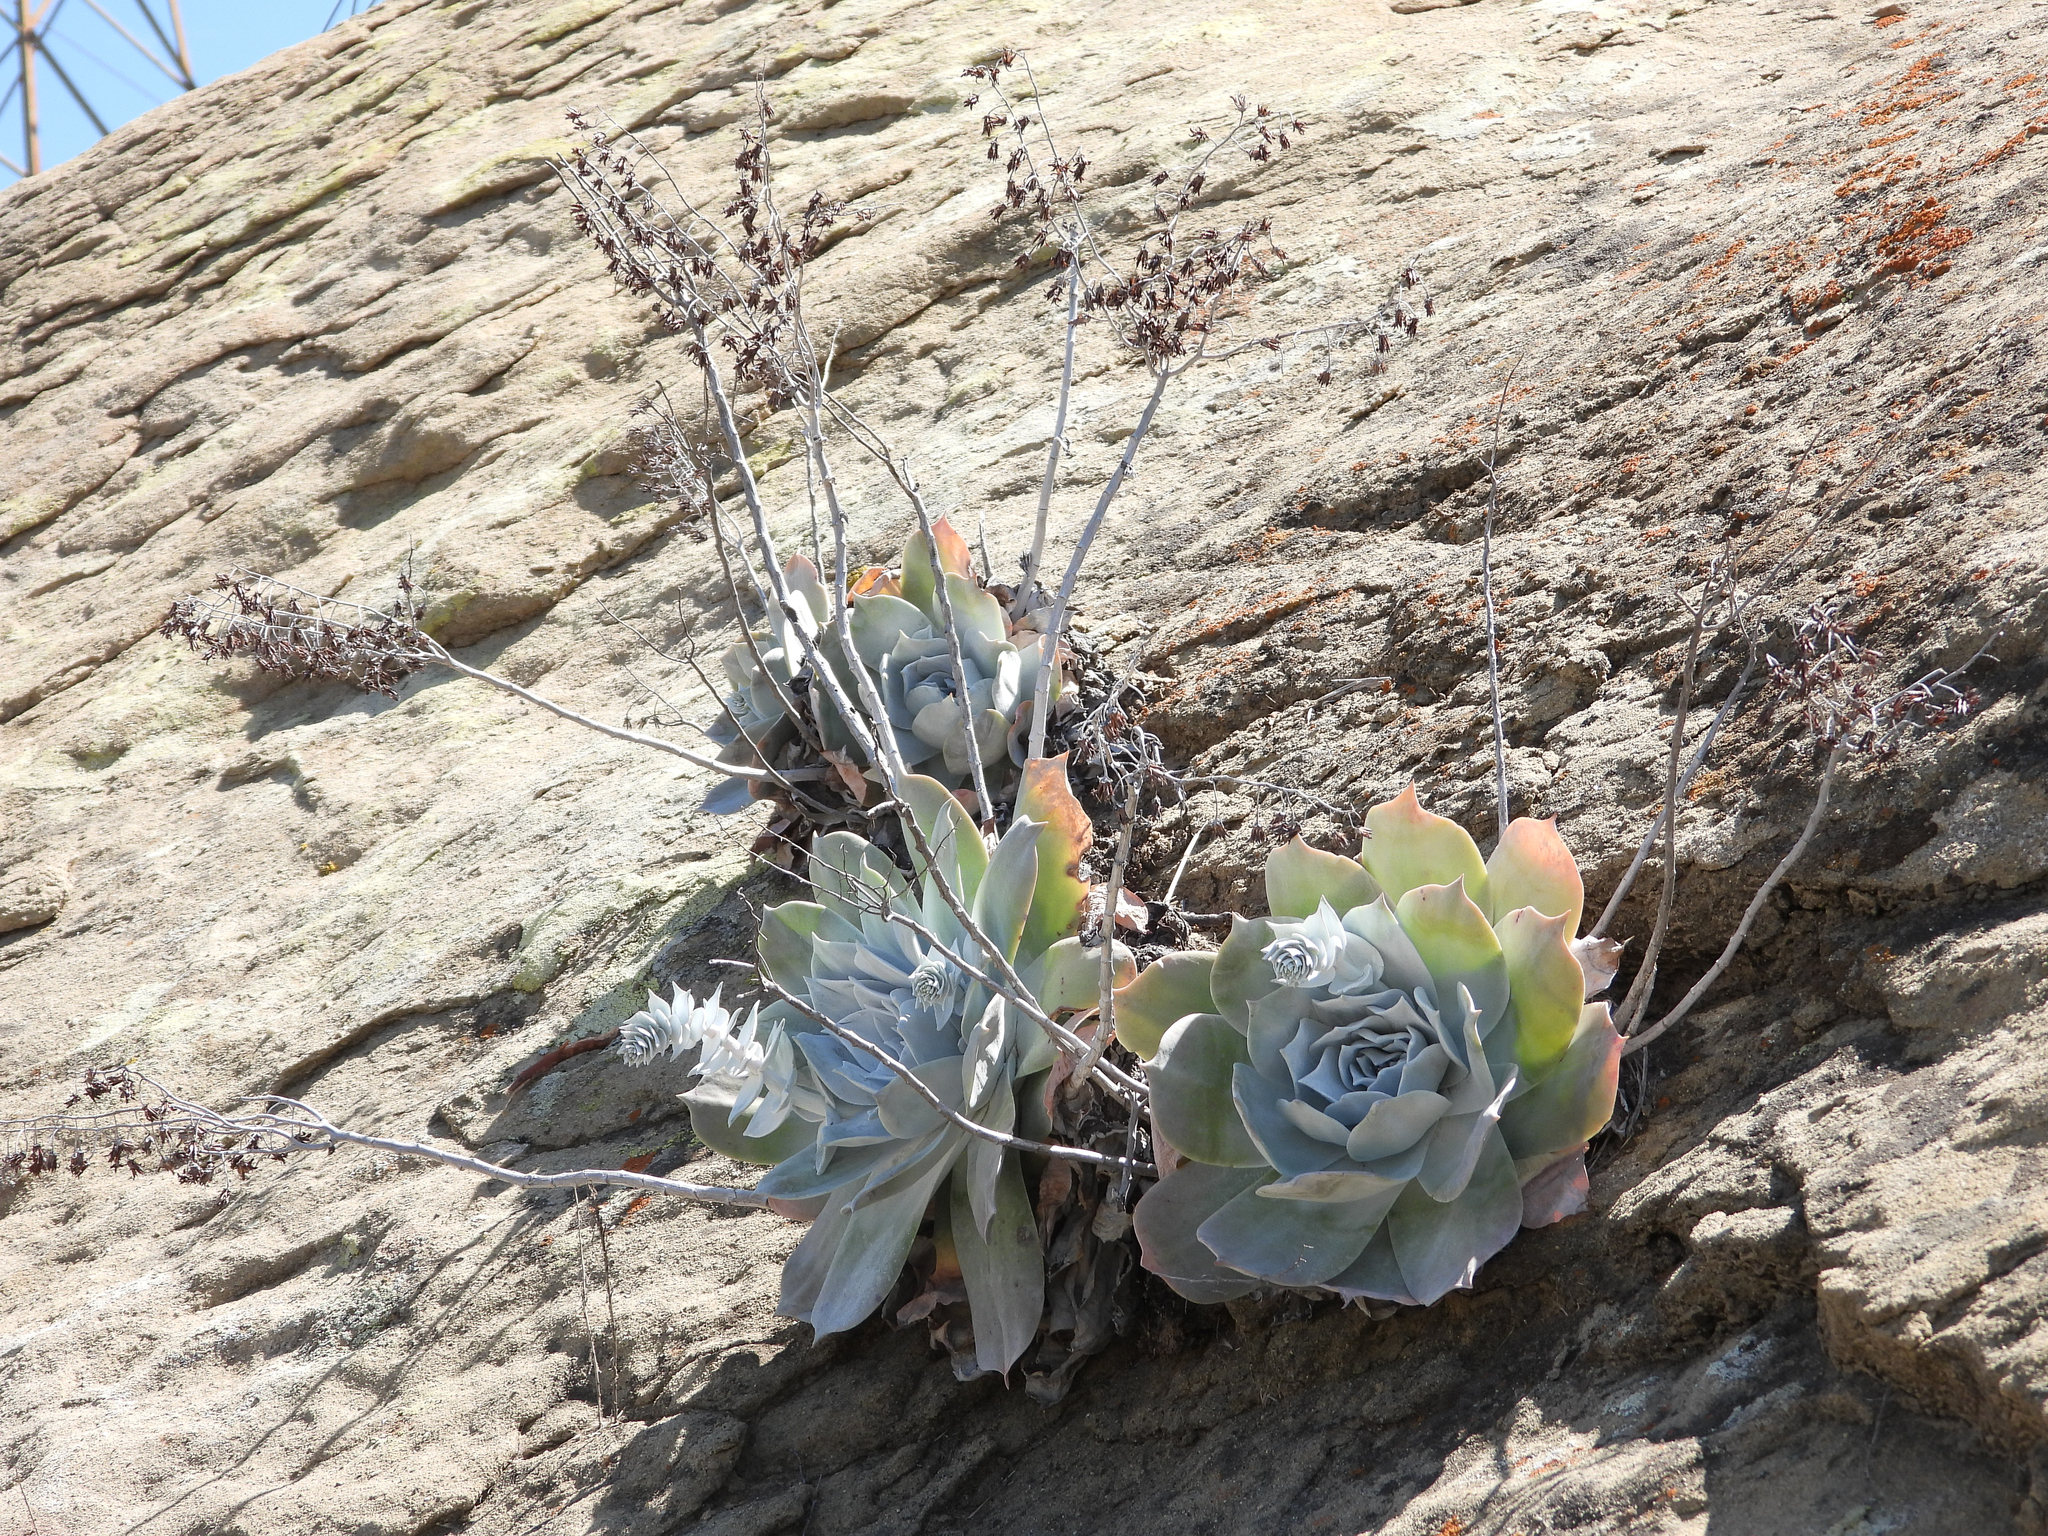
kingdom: Plantae
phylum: Tracheophyta
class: Magnoliopsida
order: Saxifragales
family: Crassulaceae
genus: Dudleya
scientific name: Dudleya pulverulenta
